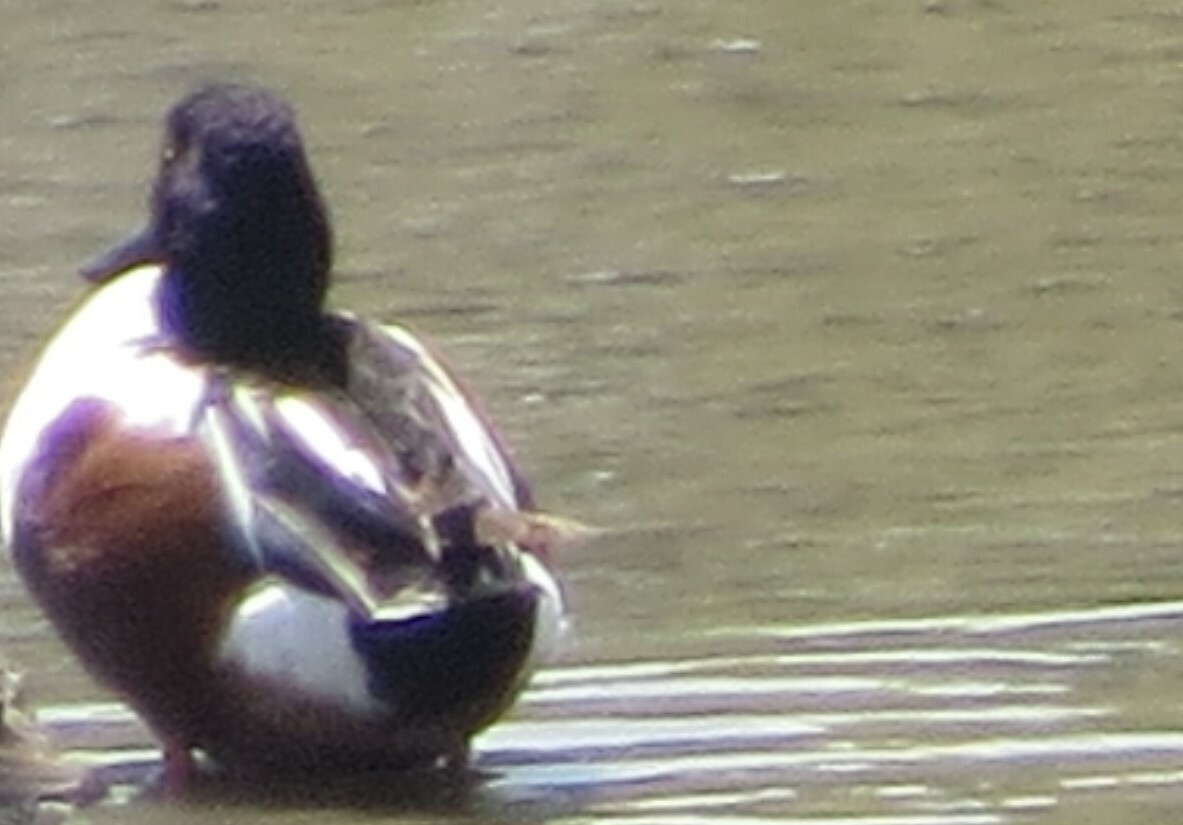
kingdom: Animalia
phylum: Chordata
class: Aves
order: Anseriformes
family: Anatidae
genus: Spatula
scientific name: Spatula clypeata
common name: Northern shoveler
